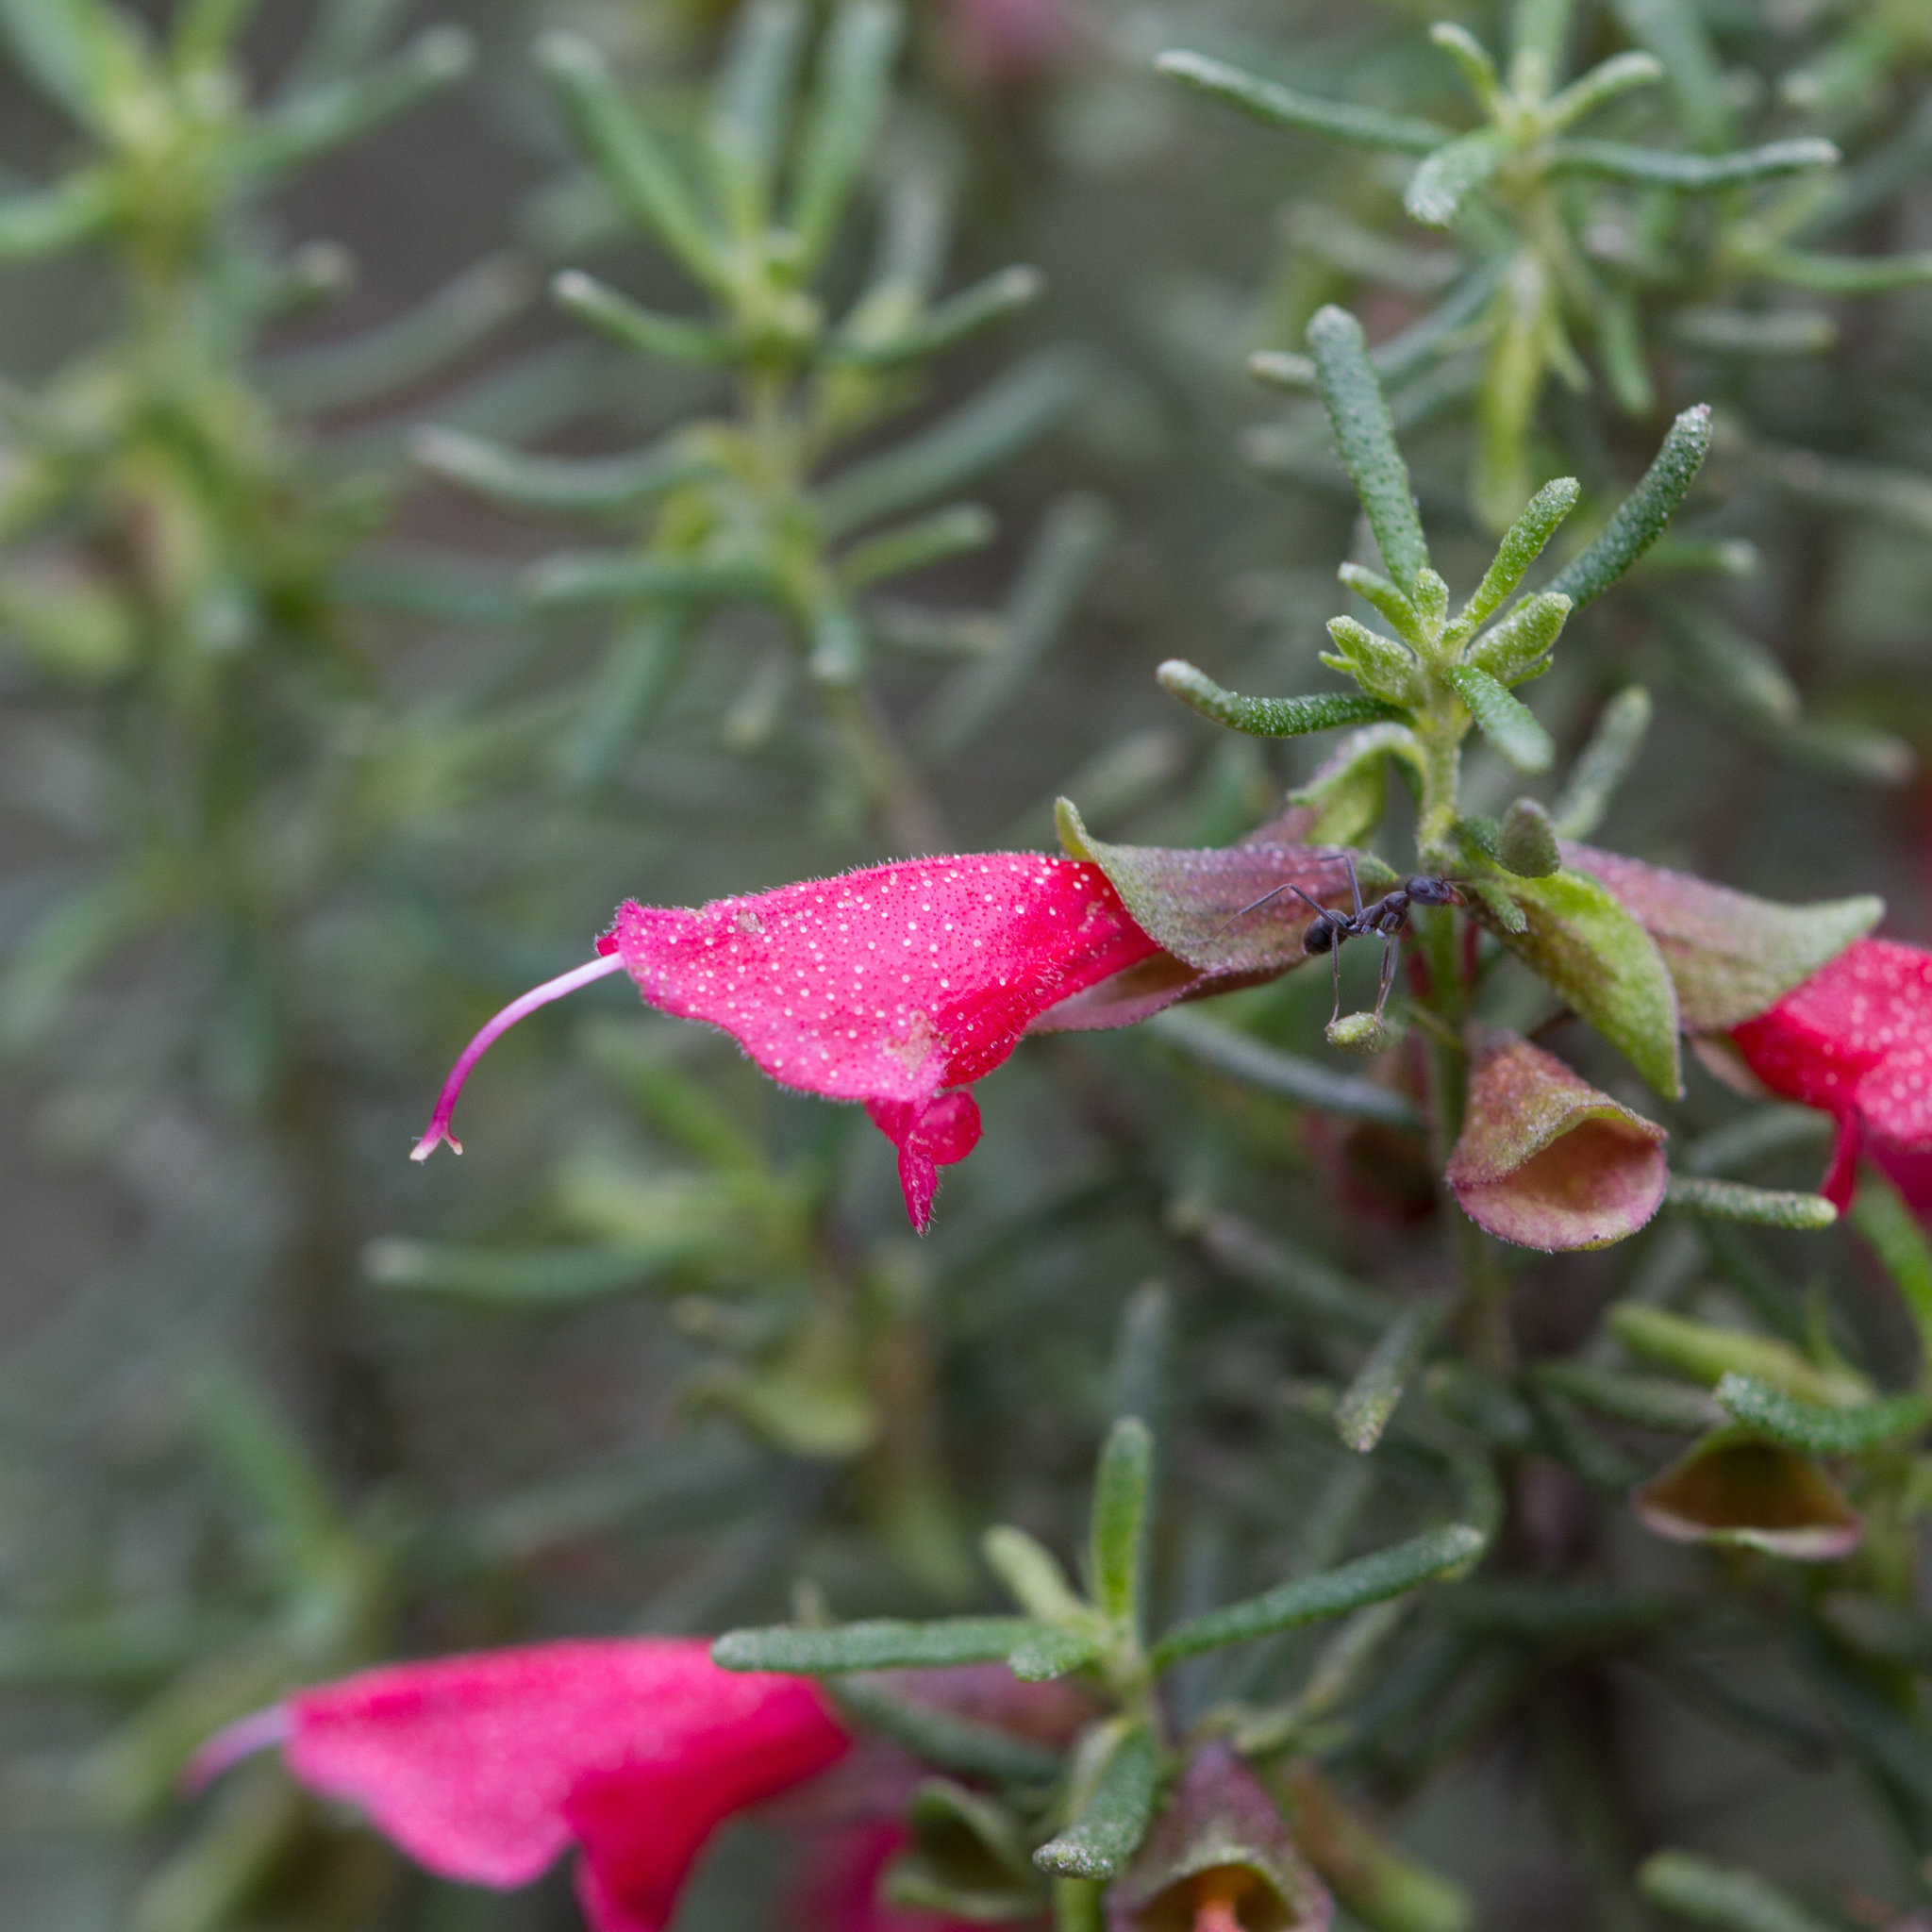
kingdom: Plantae
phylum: Tracheophyta
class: Magnoliopsida
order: Lamiales
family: Lamiaceae
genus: Prostanthera
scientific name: Prostanthera aspalathoides
